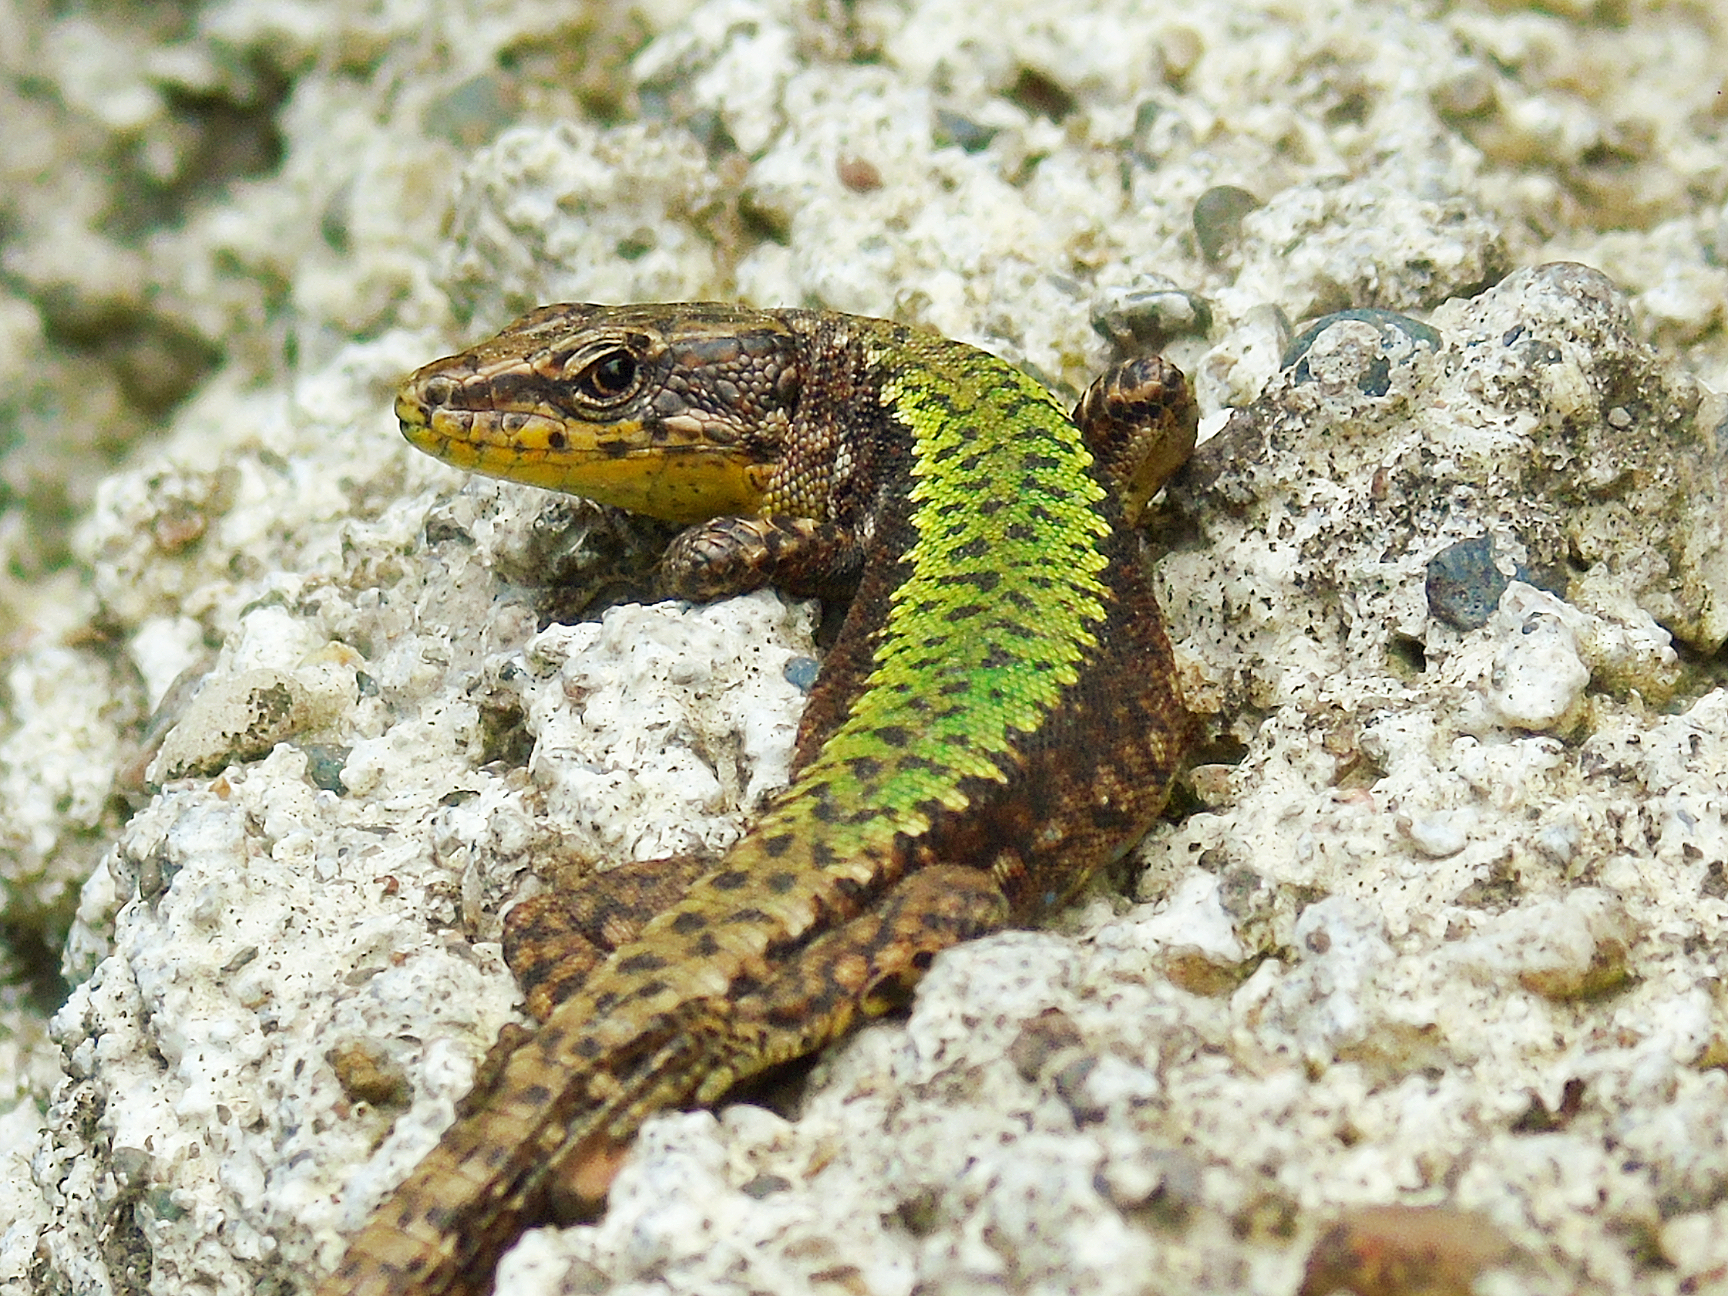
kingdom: Animalia
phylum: Chordata
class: Squamata
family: Lacertidae
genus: Darevskia
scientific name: Darevskia clarkorum
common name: Clarks' lizard
